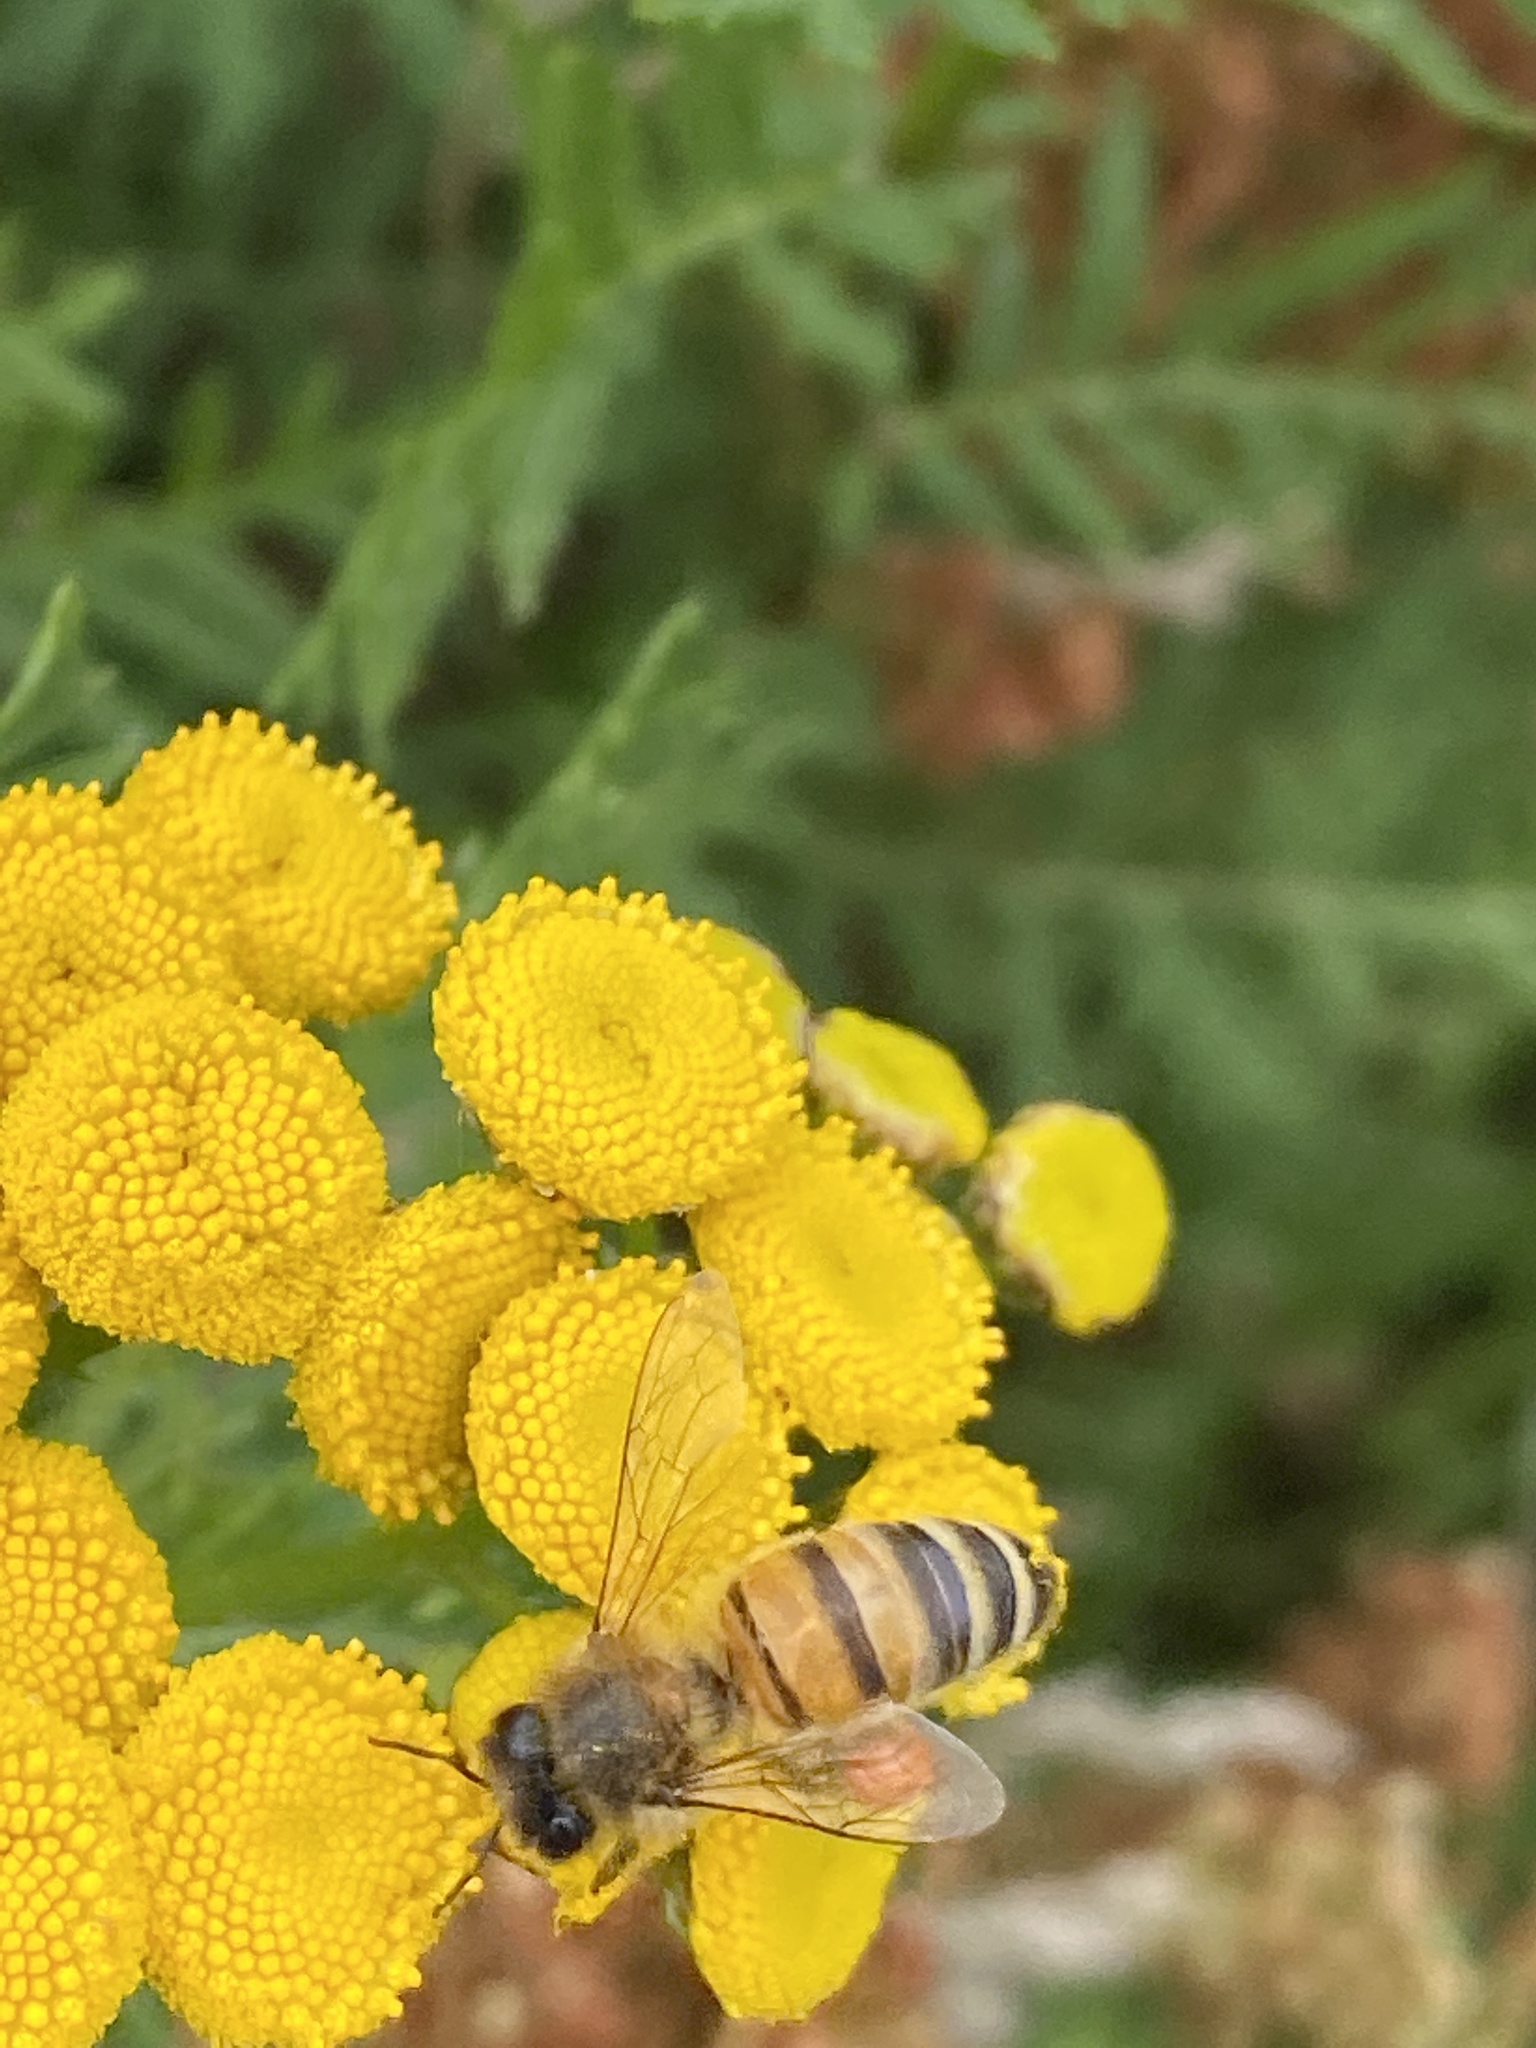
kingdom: Animalia
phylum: Arthropoda
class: Insecta
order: Hymenoptera
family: Apidae
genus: Apis
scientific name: Apis mellifera
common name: Honey bee
